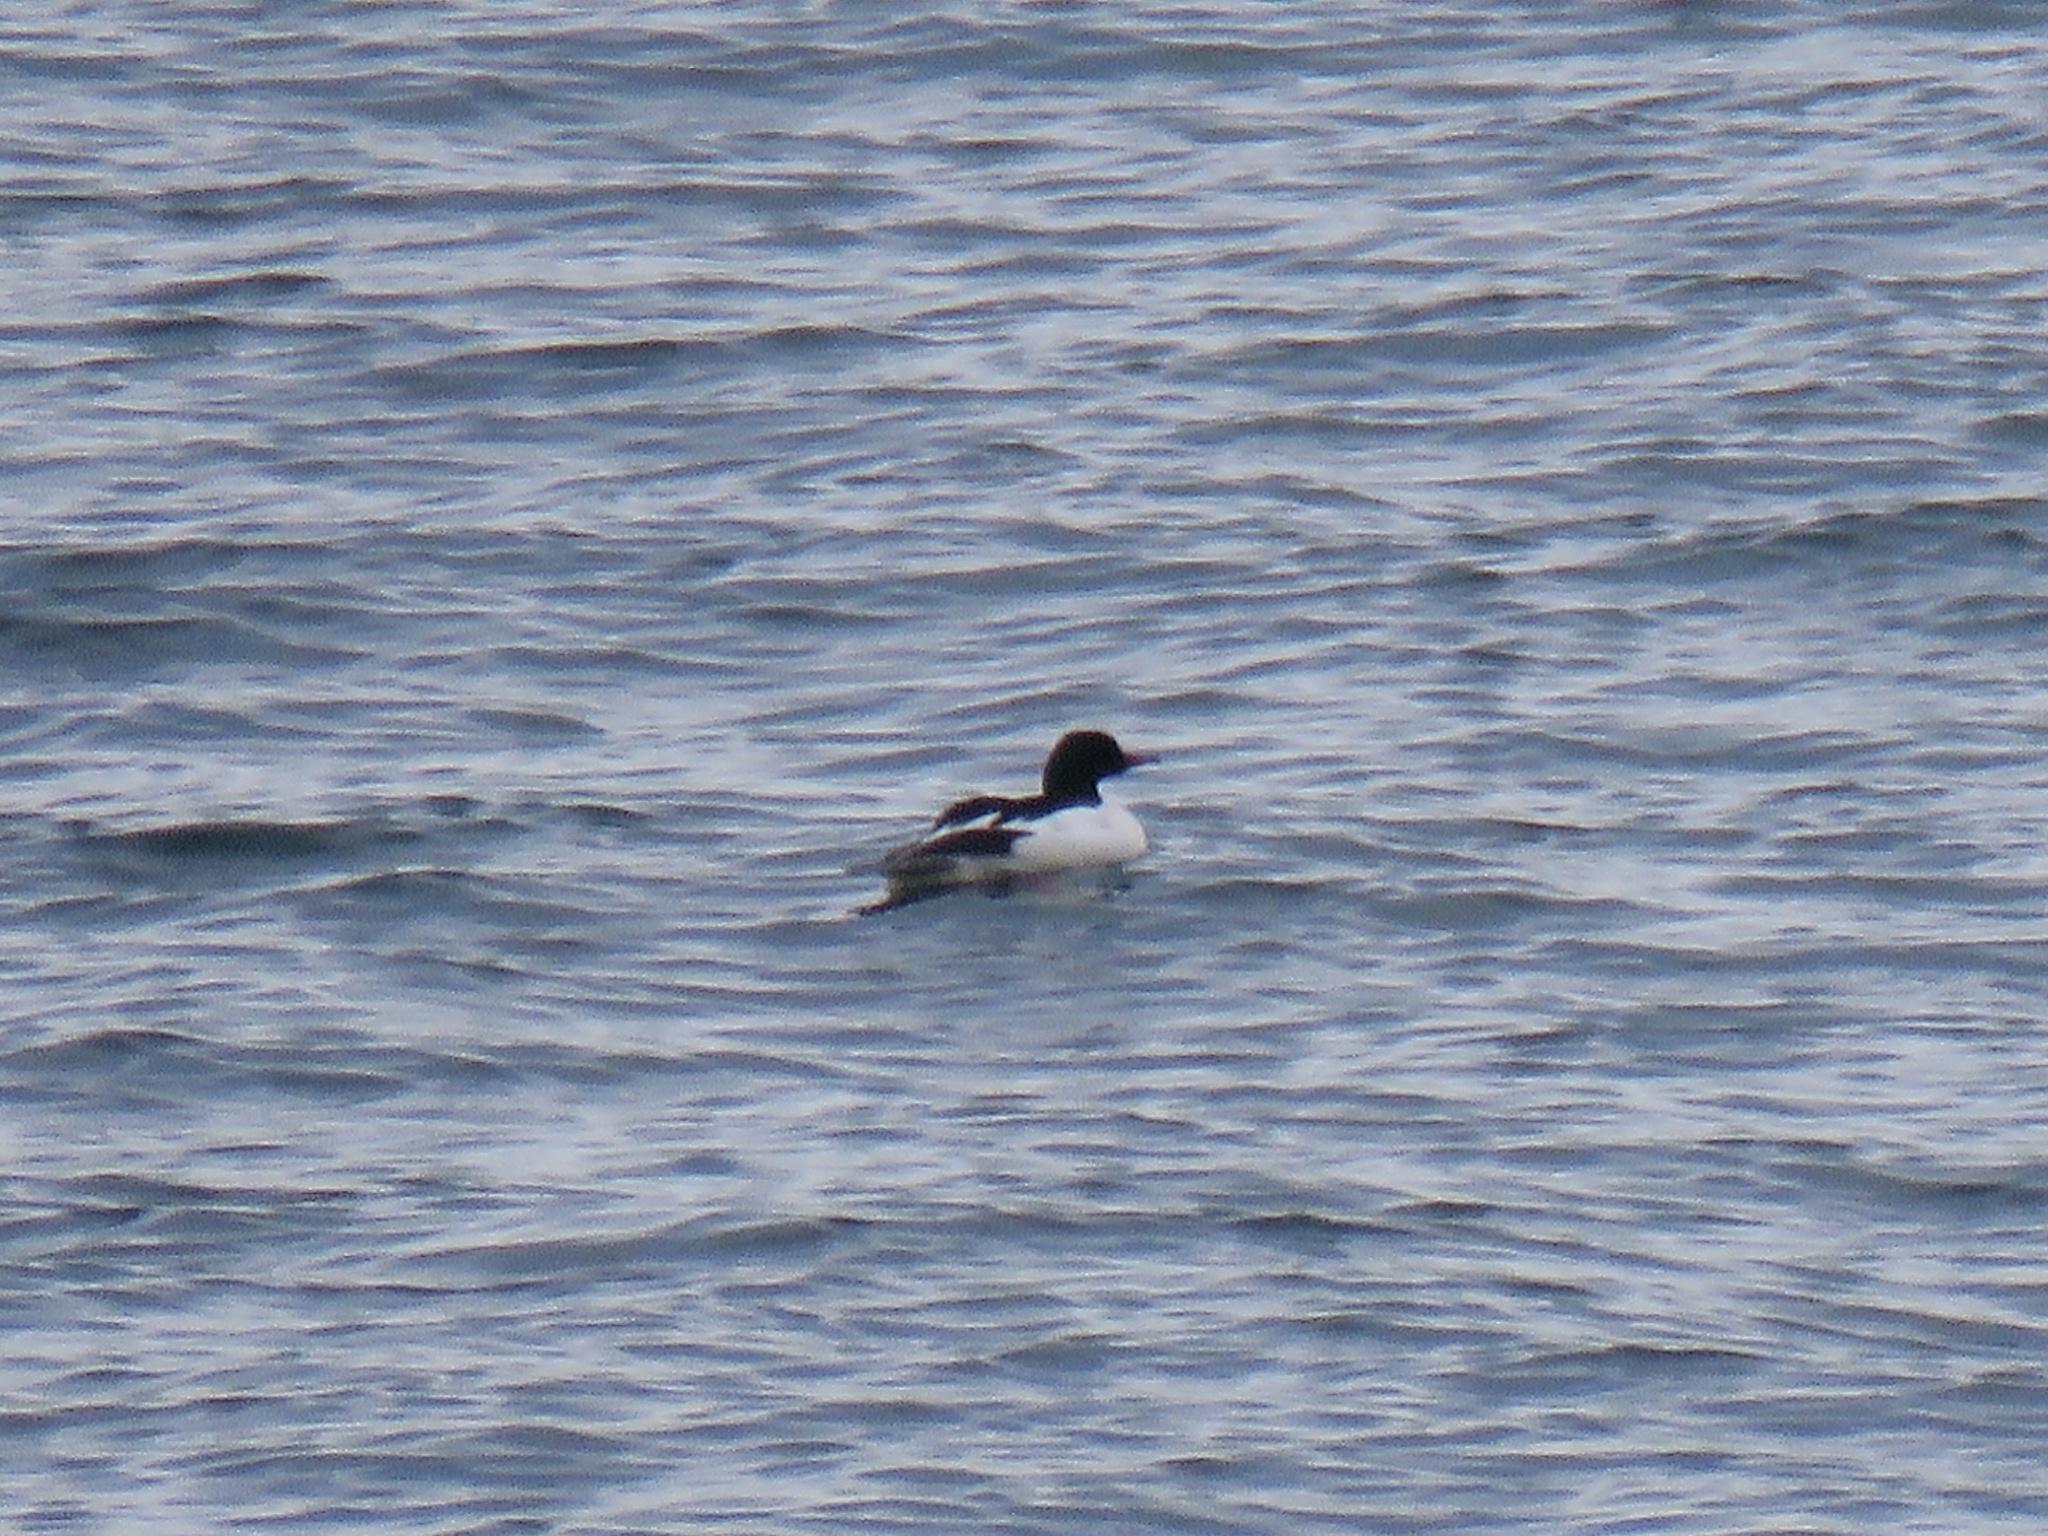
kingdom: Animalia
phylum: Chordata
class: Aves
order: Anseriformes
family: Anatidae
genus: Mergus
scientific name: Mergus merganser
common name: Common merganser
